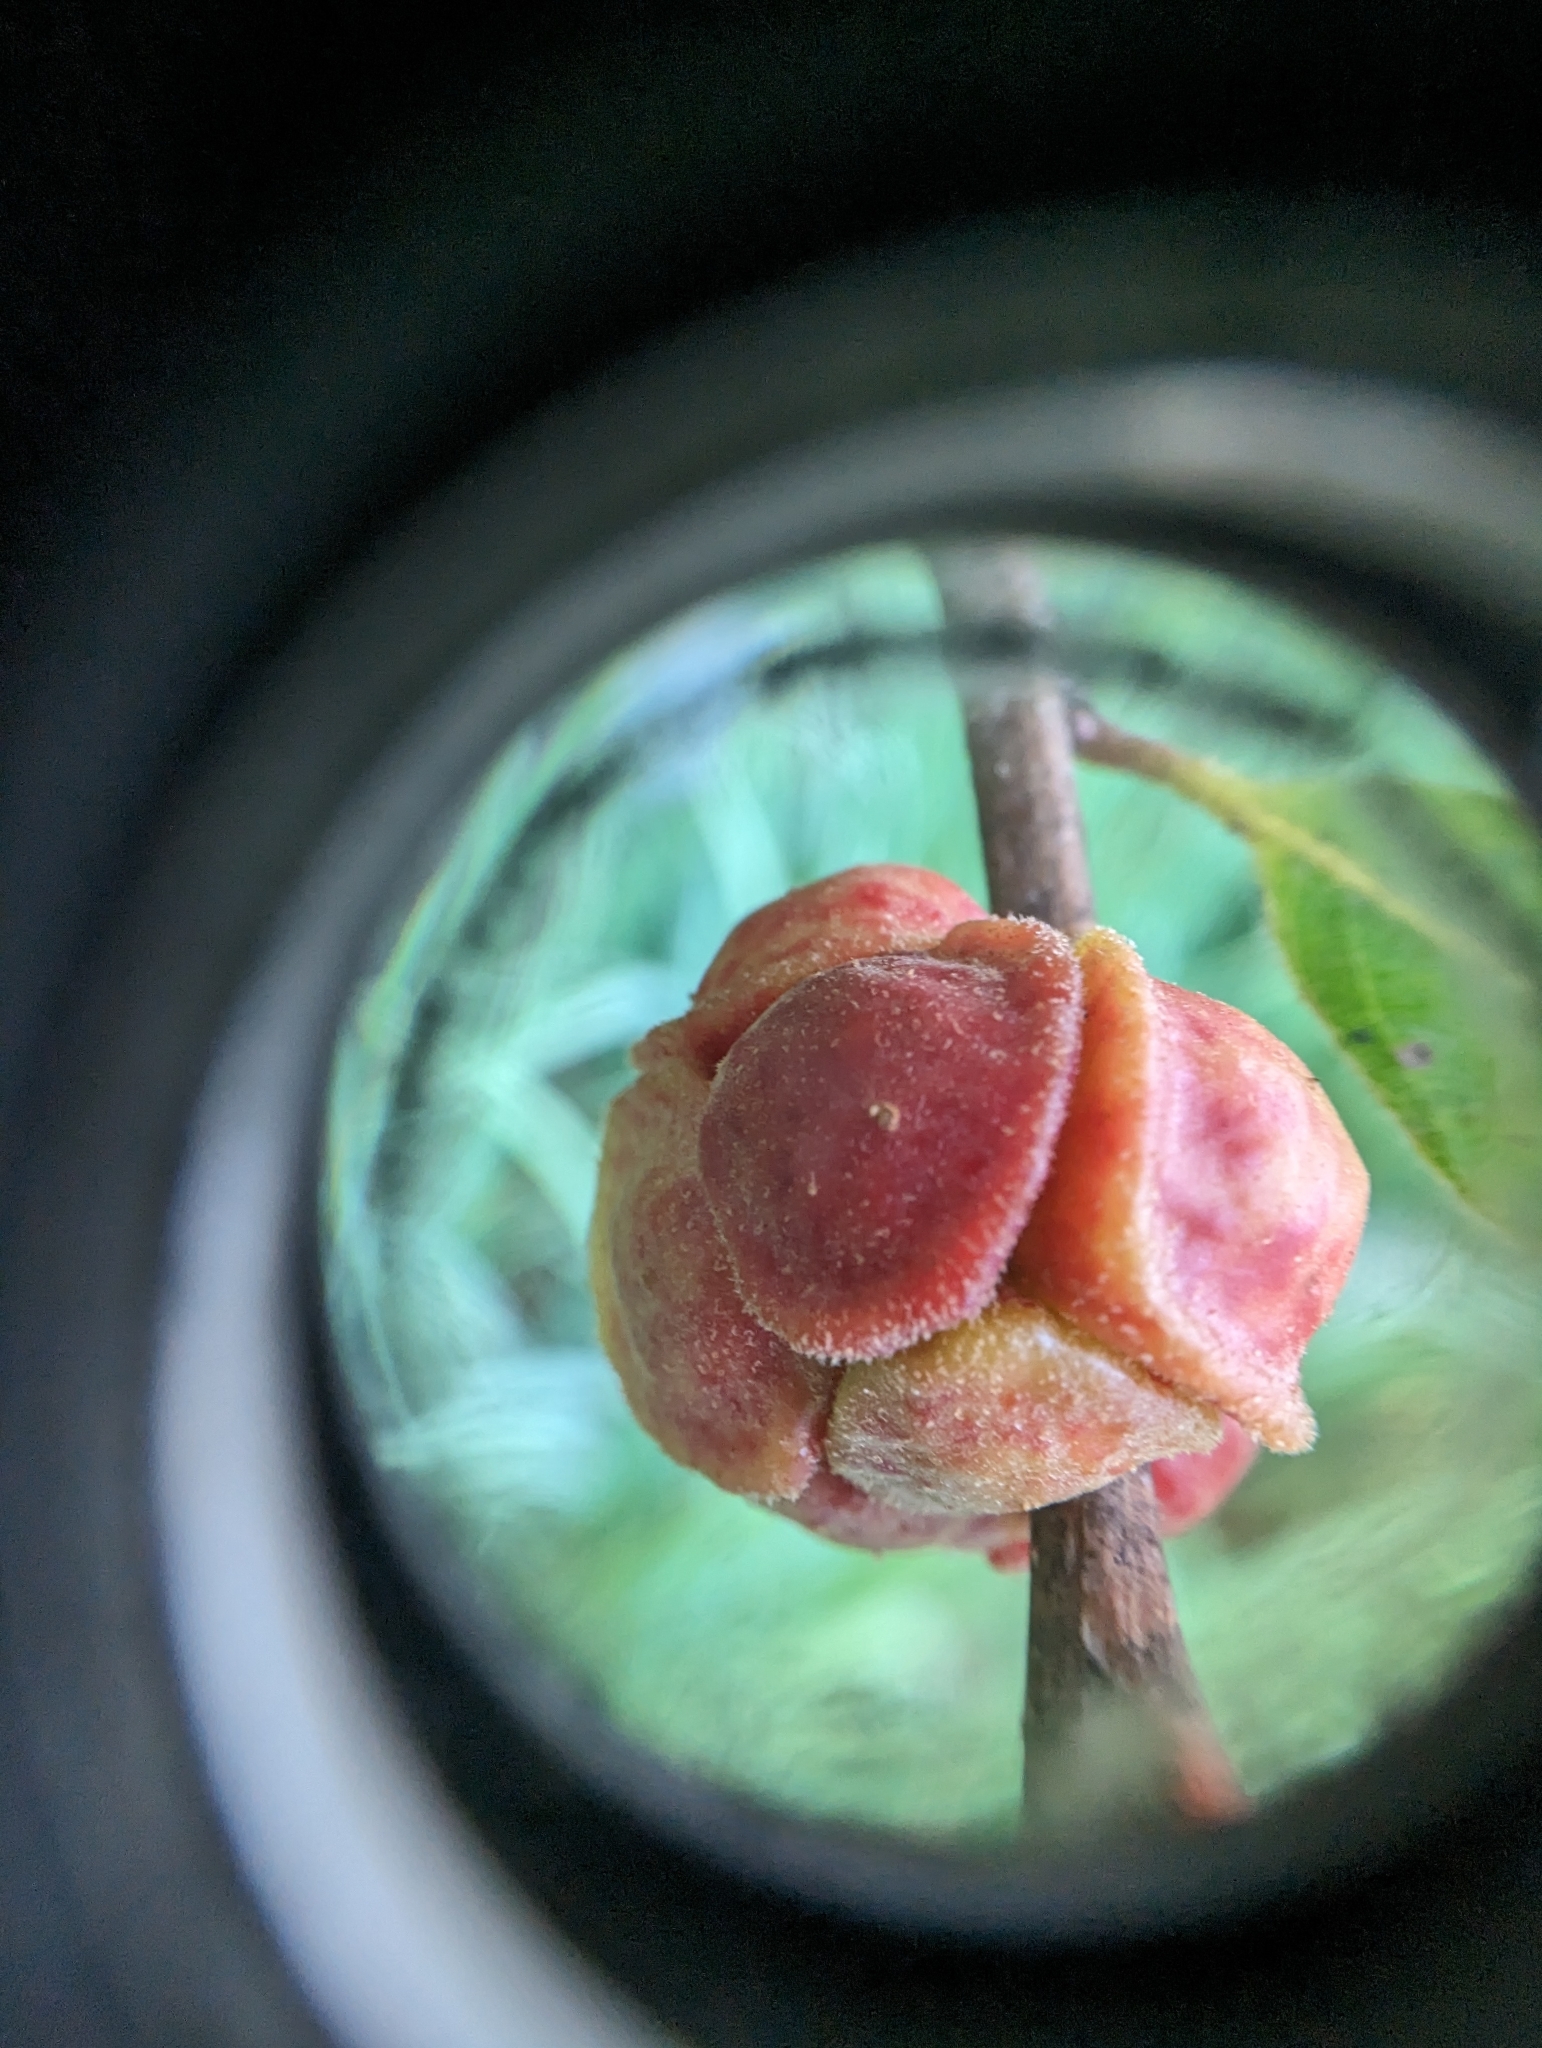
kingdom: Animalia
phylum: Arthropoda
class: Insecta
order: Hymenoptera
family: Cynipidae
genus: Andricus
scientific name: Andricus
